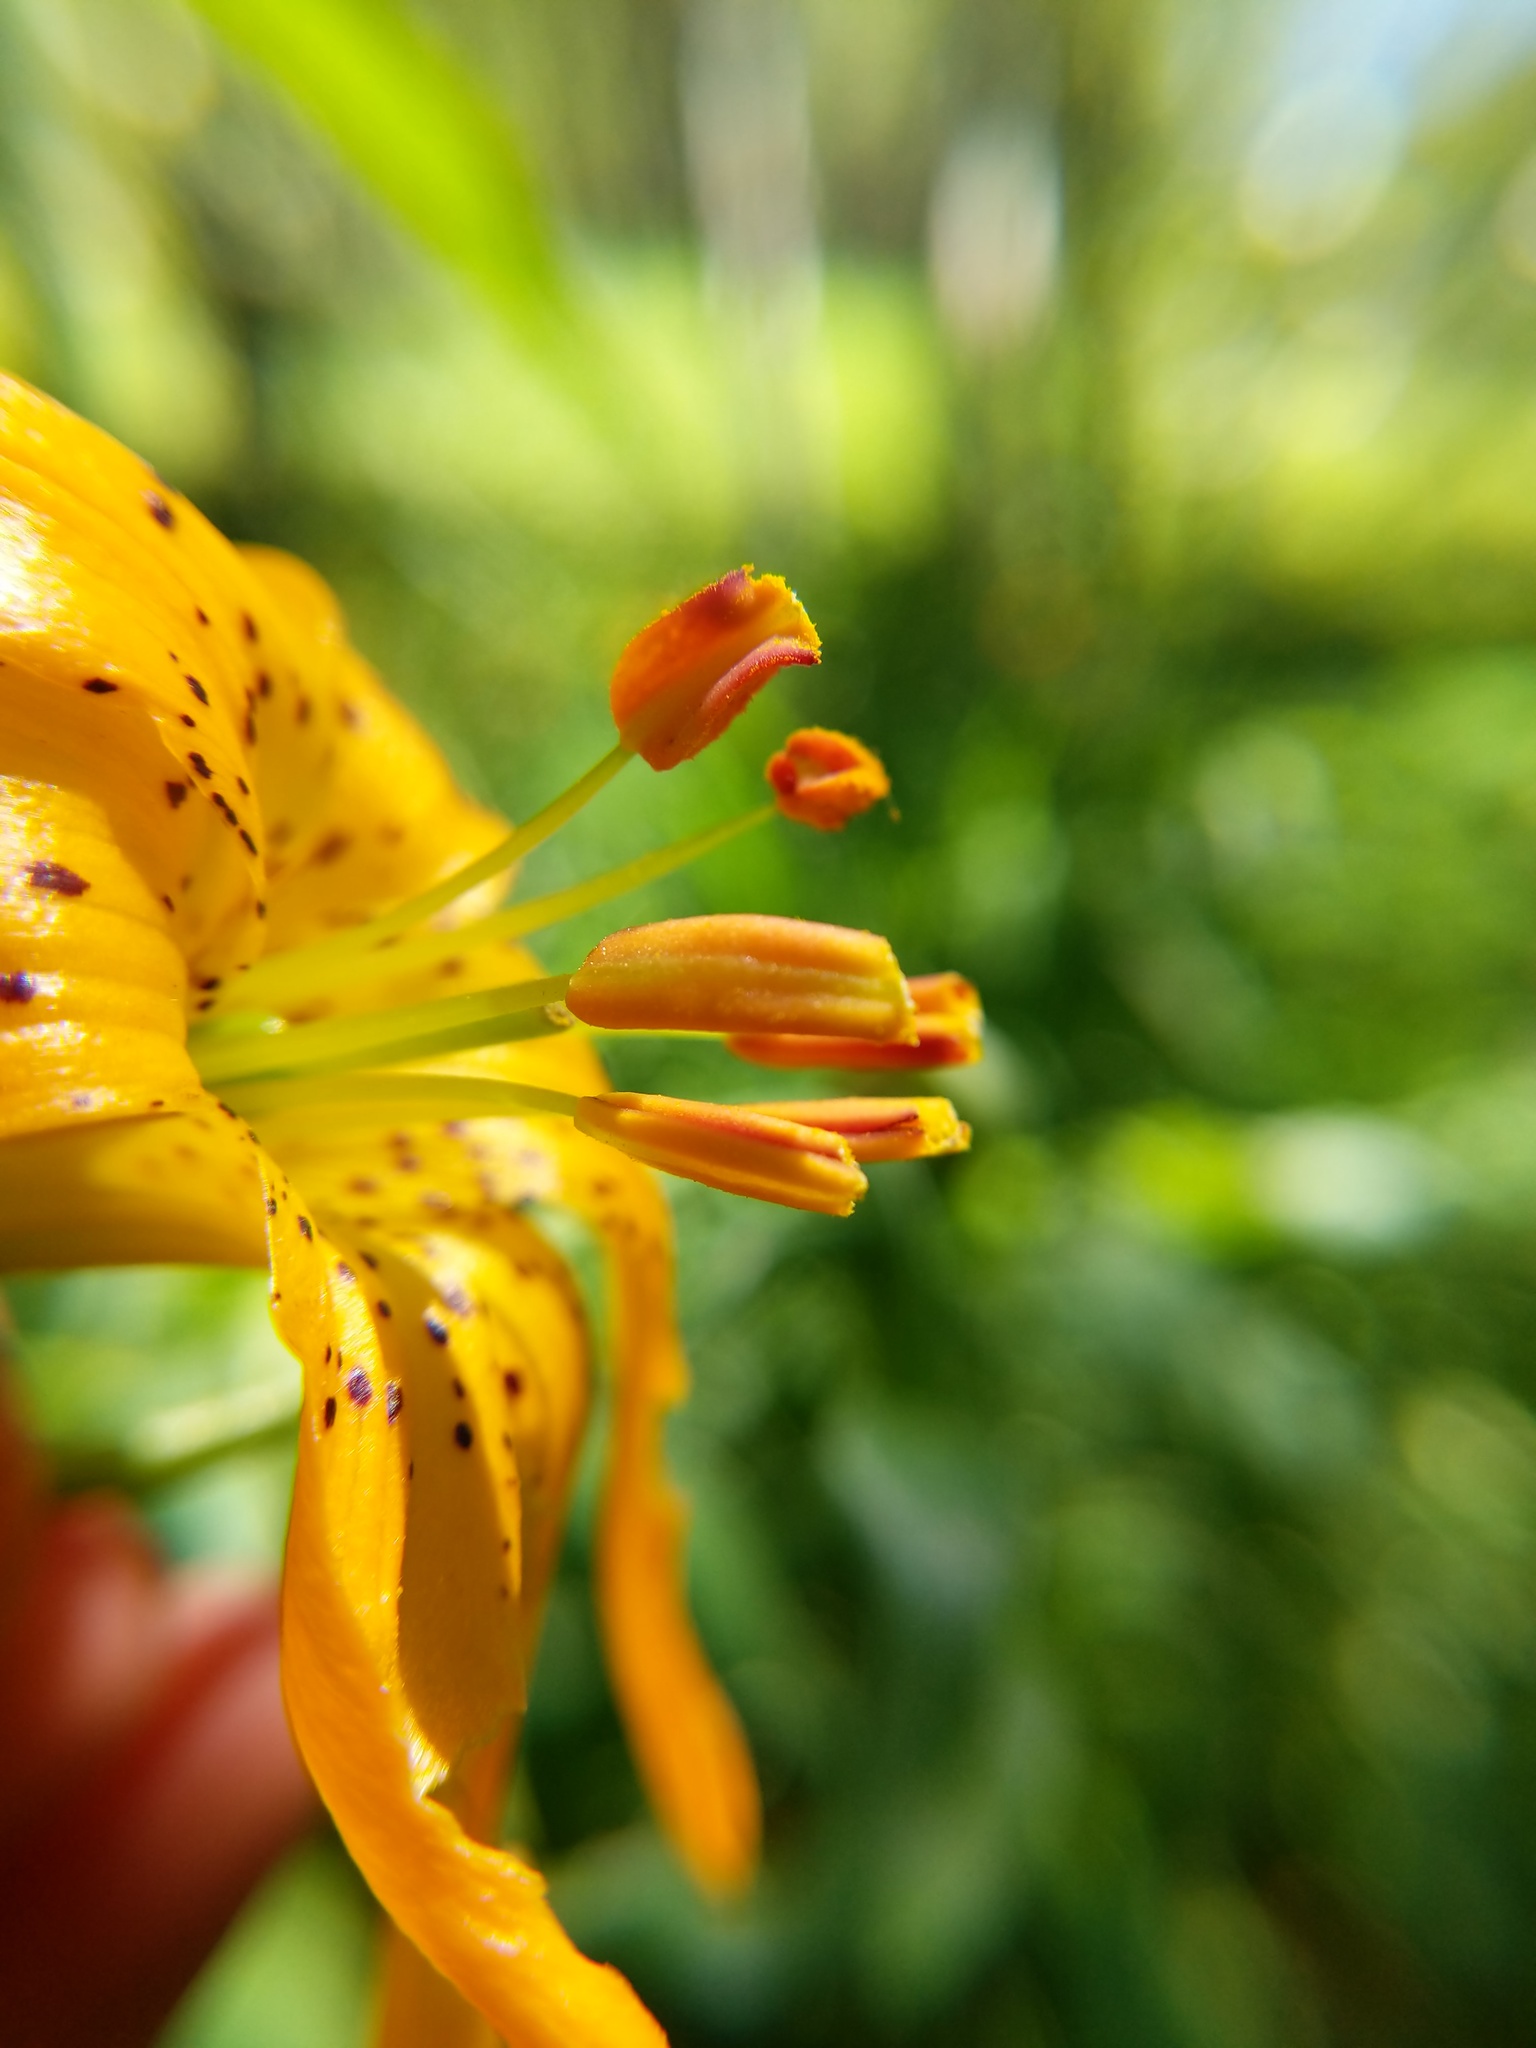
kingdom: Plantae
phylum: Tracheophyta
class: Liliopsida
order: Liliales
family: Liliaceae
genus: Lilium
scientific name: Lilium columbianum
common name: Columbia lily
